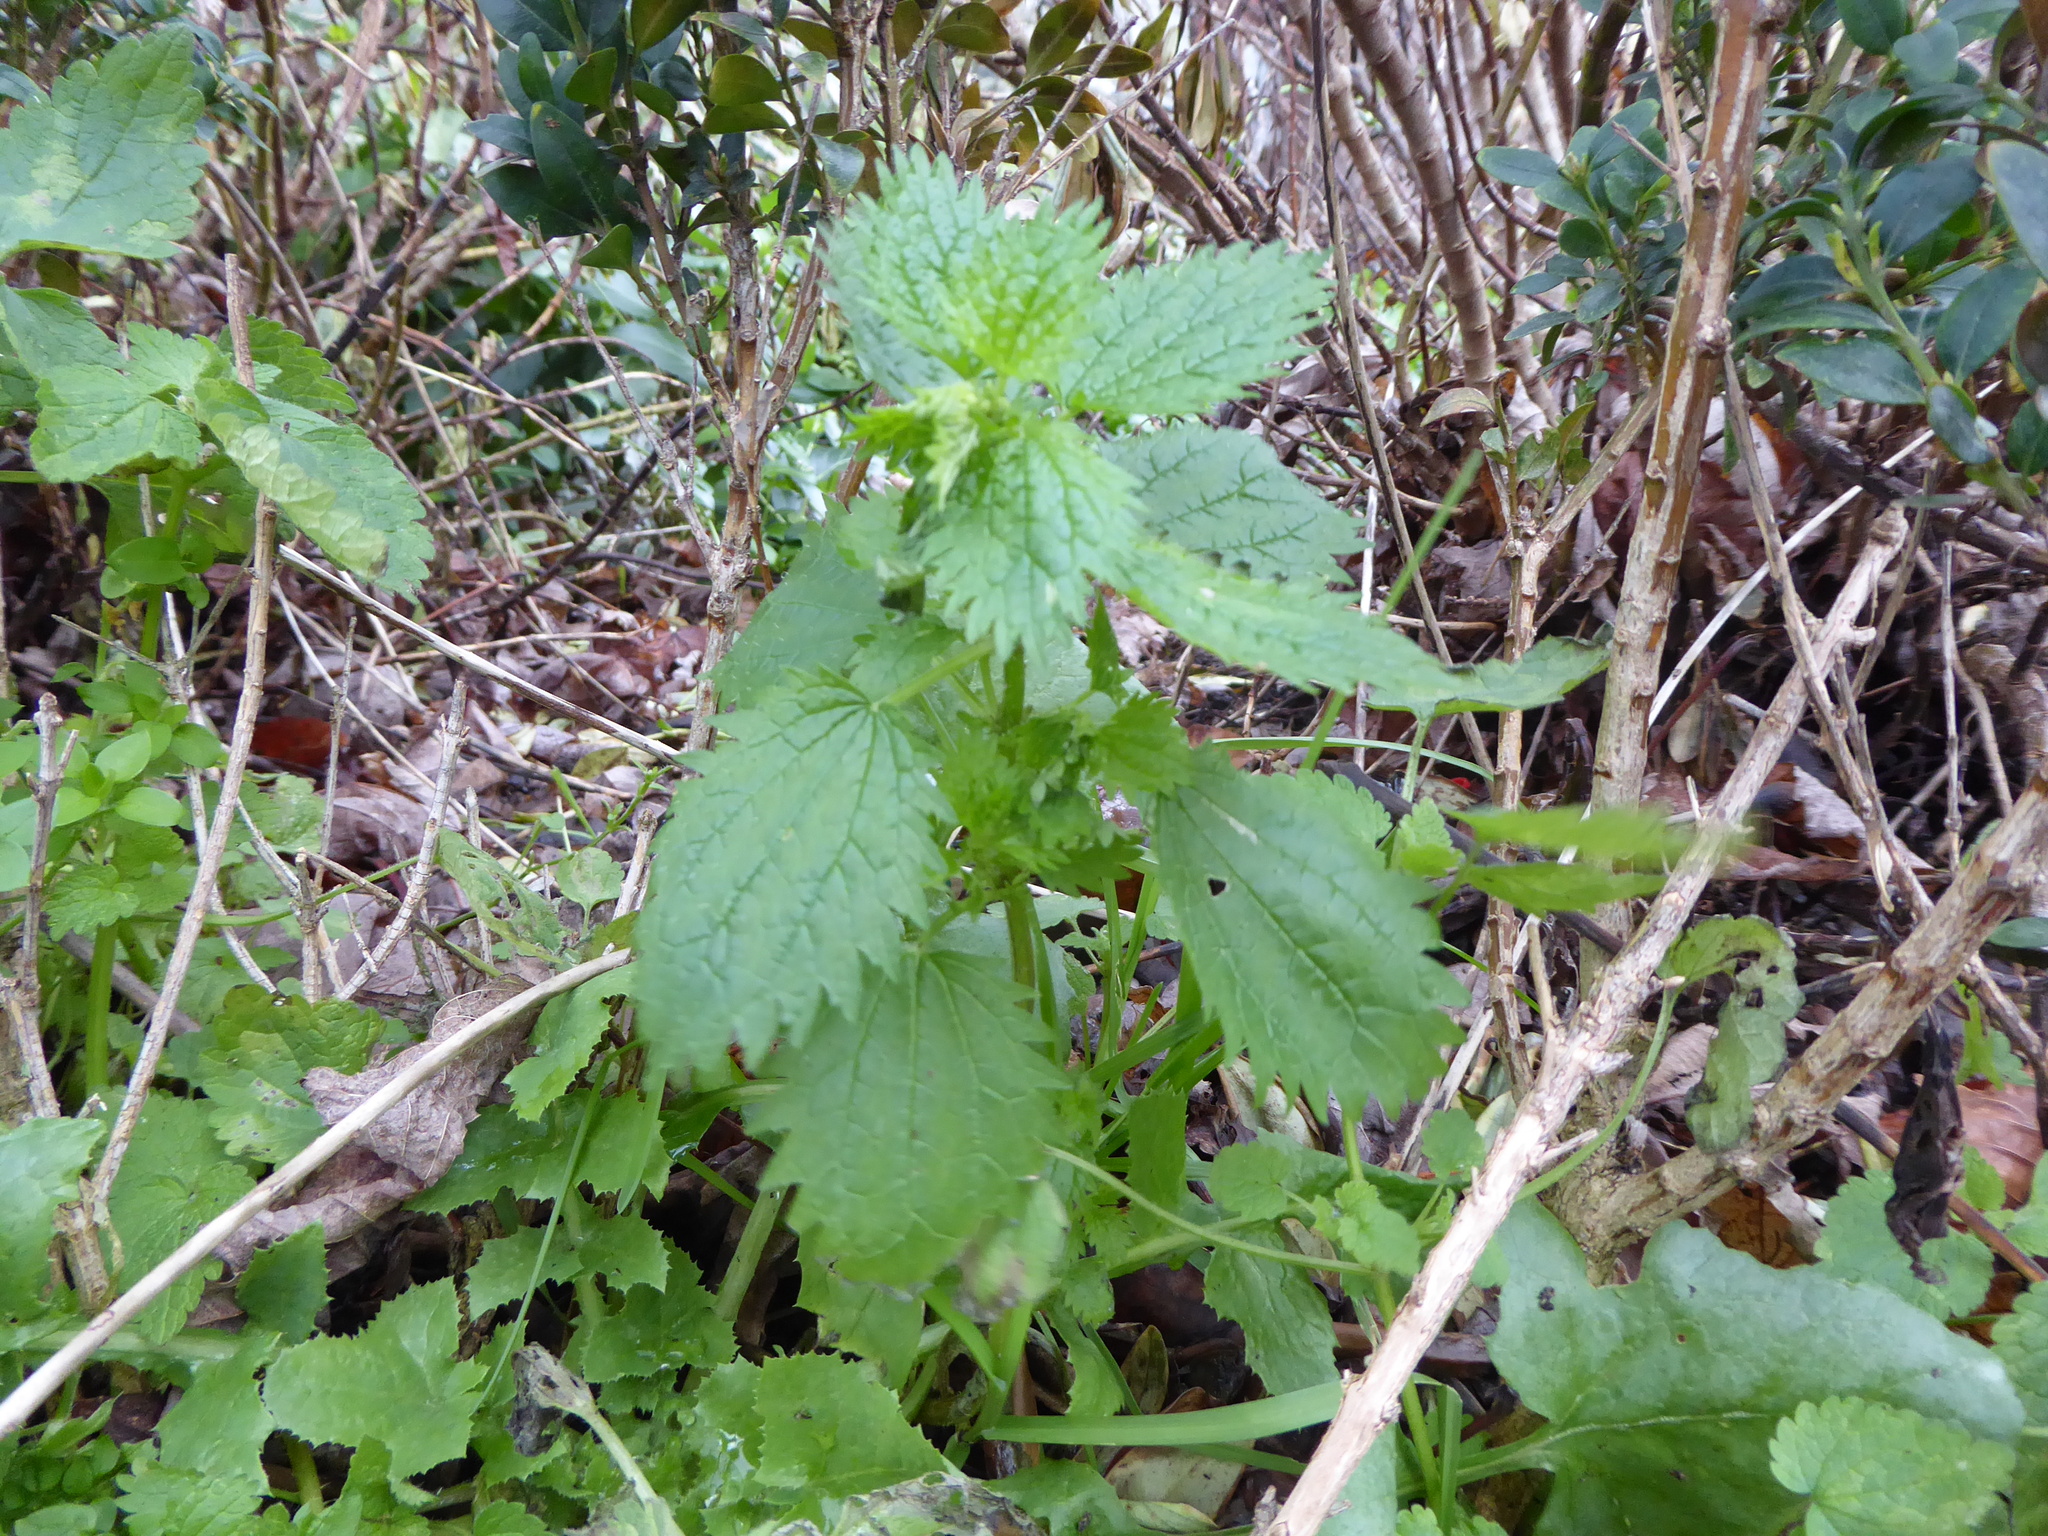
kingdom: Plantae
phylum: Tracheophyta
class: Magnoliopsida
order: Rosales
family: Urticaceae
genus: Urtica
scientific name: Urtica urens
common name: Dwarf nettle
